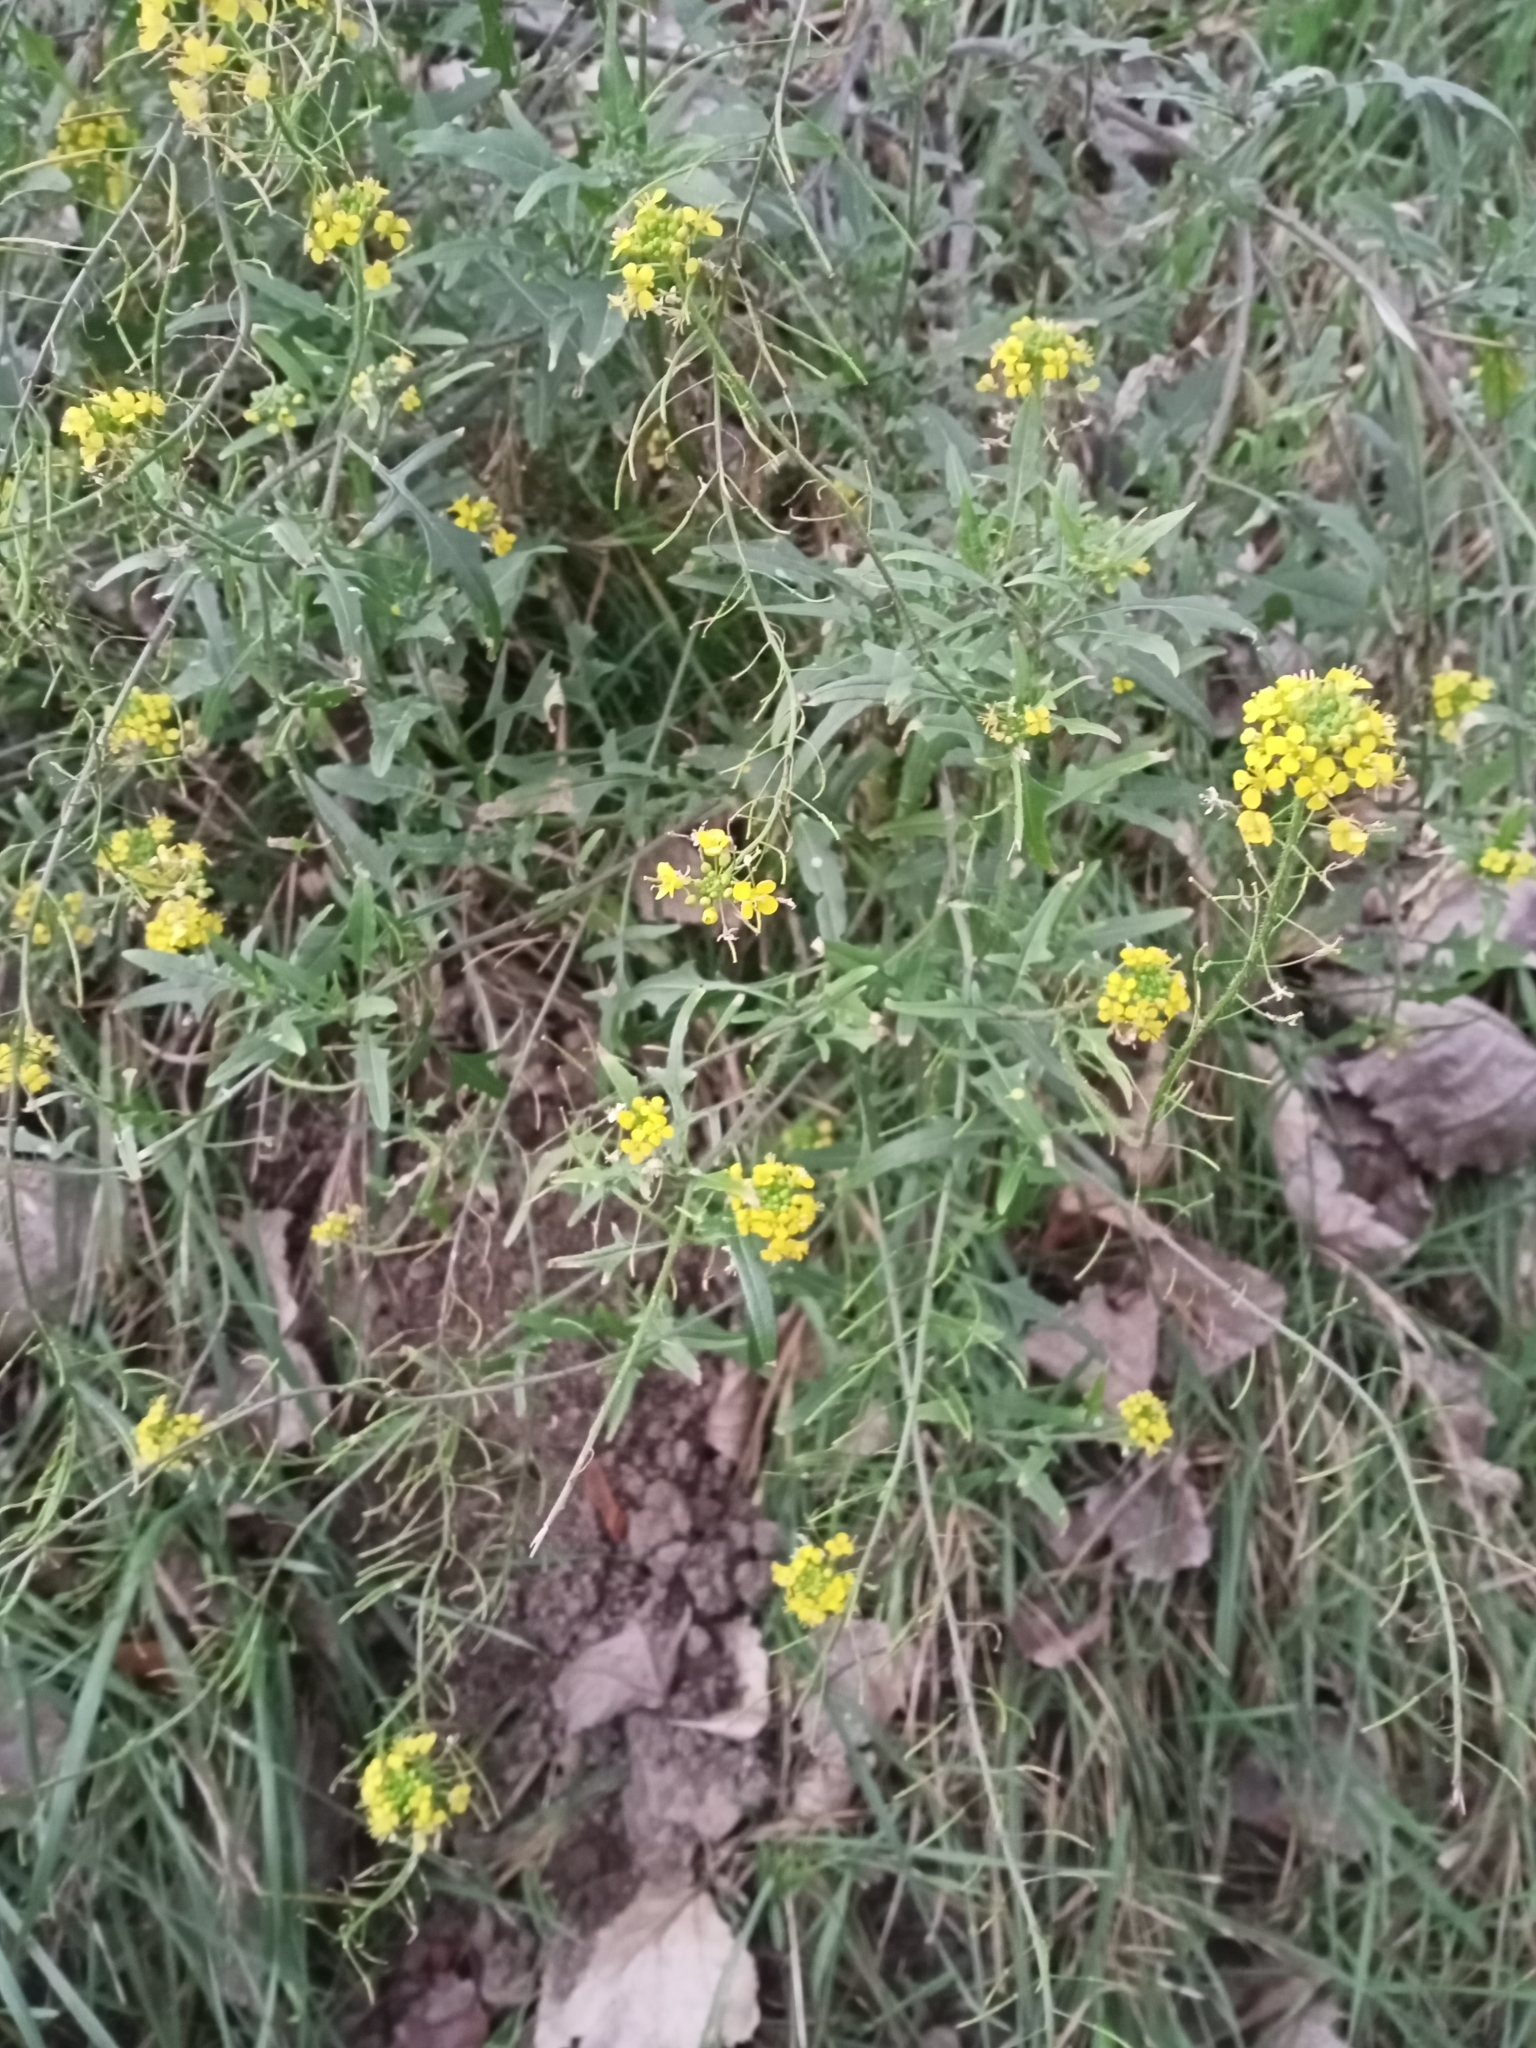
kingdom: Plantae
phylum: Tracheophyta
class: Magnoliopsida
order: Brassicales
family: Brassicaceae
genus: Sisymbrium
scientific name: Sisymbrium loeselii
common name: False london-rocket
